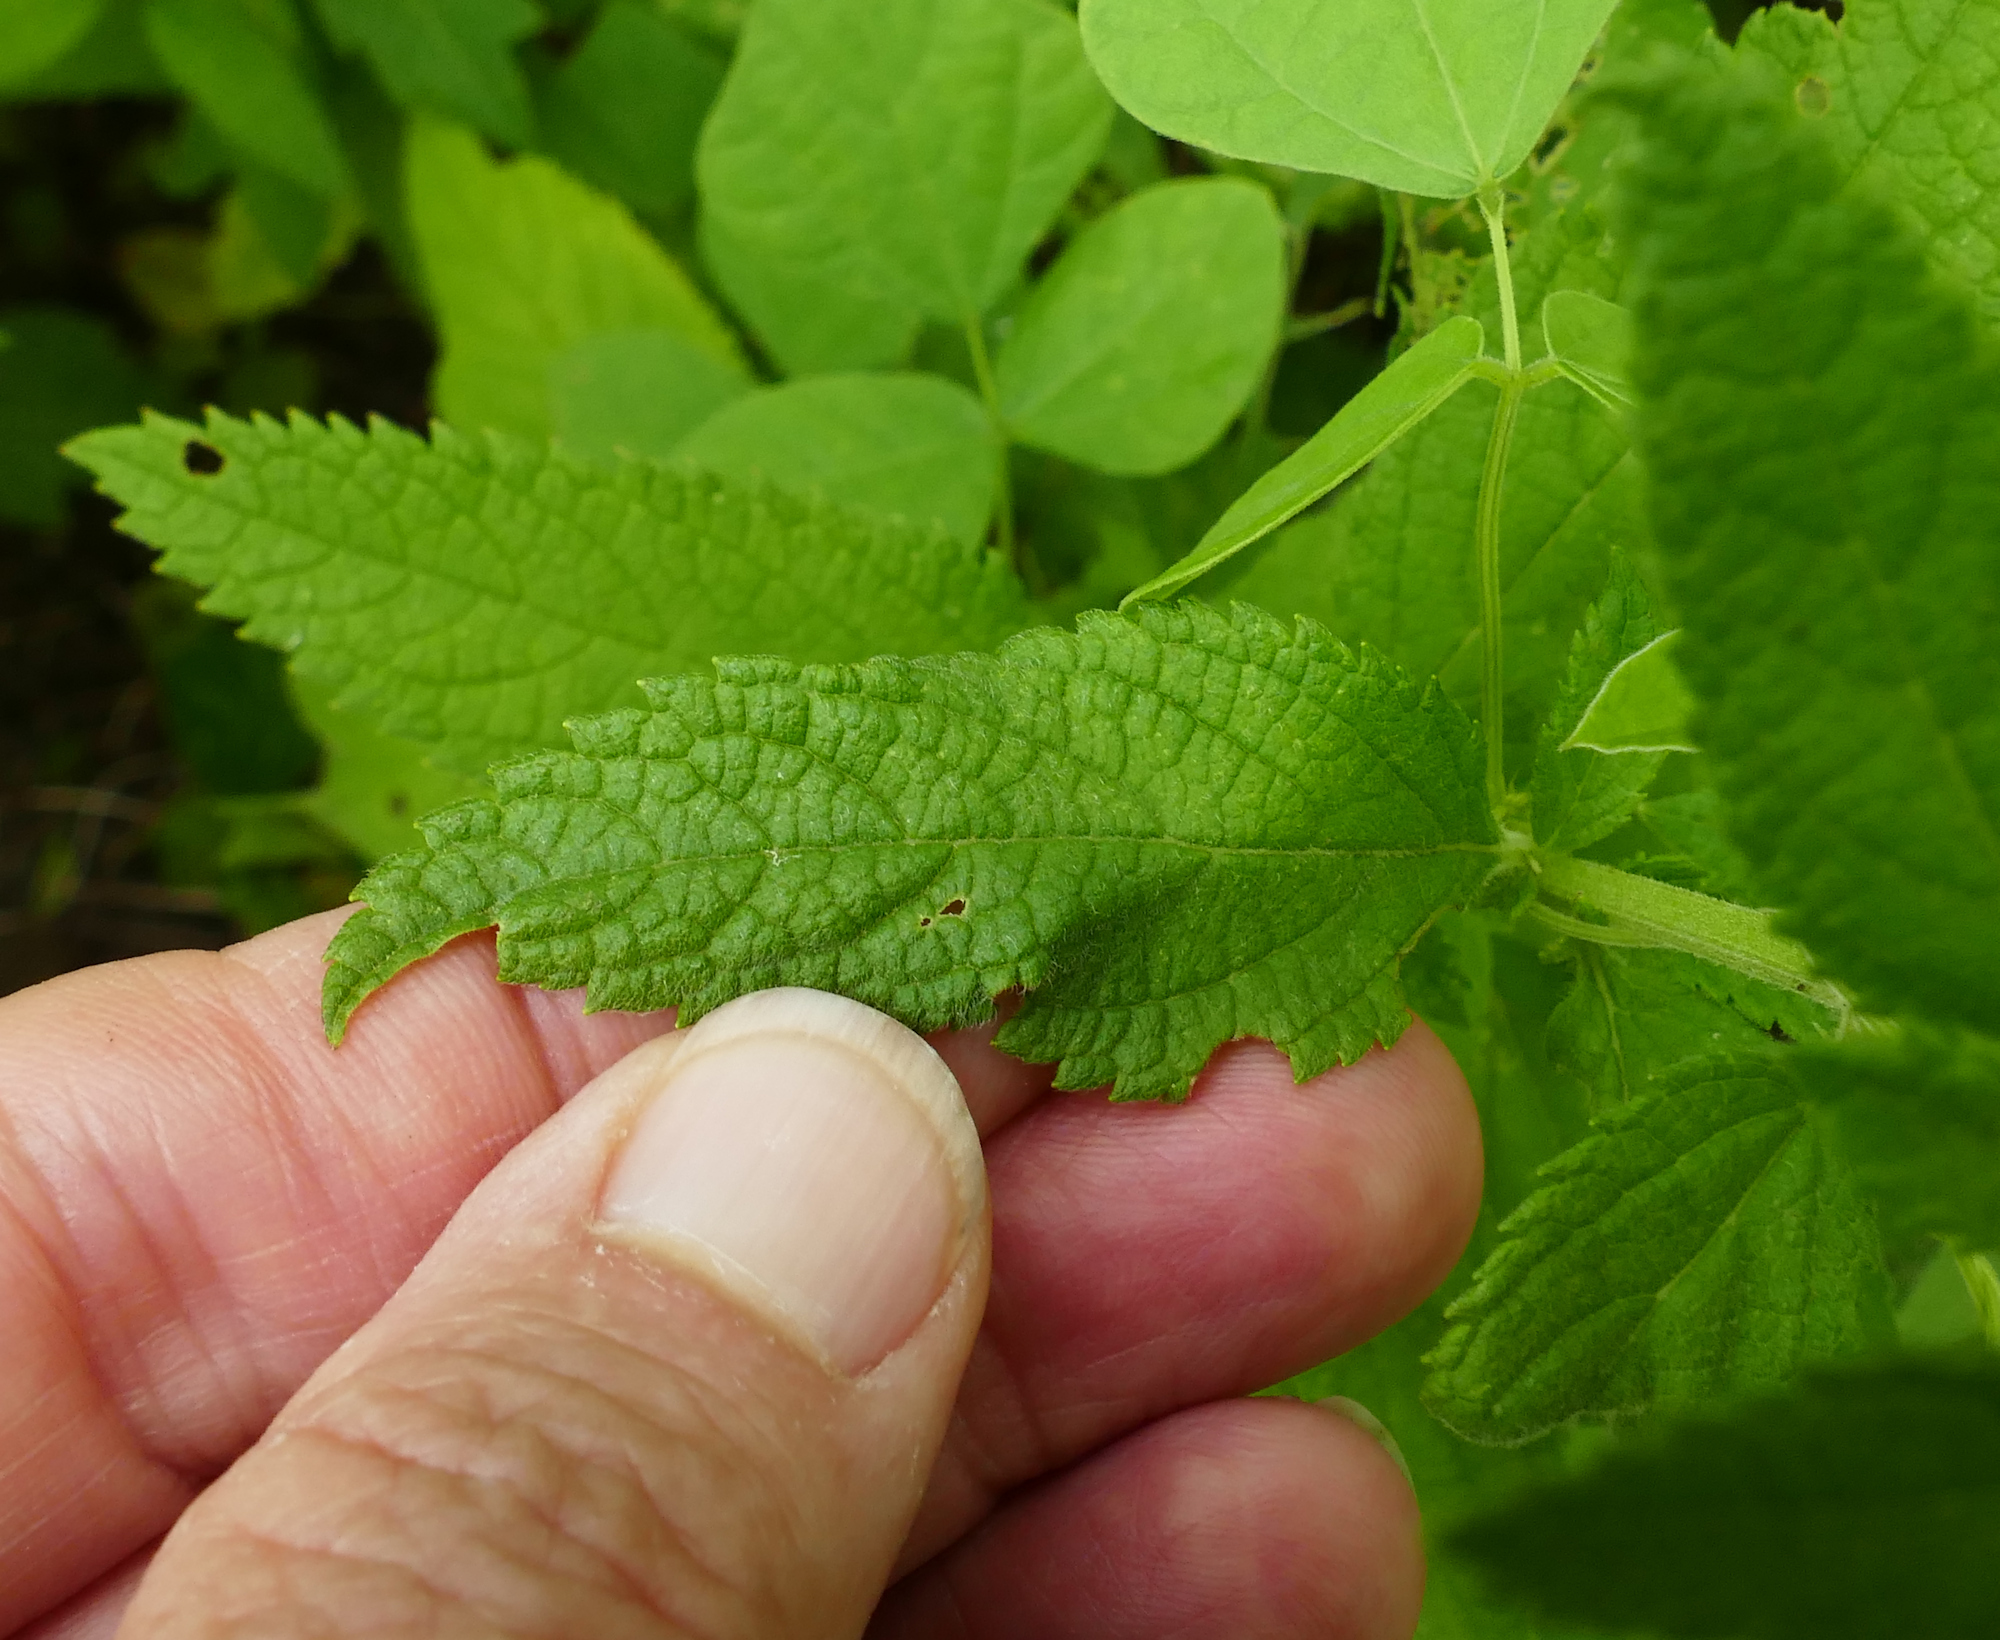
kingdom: Plantae
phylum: Tracheophyta
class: Magnoliopsida
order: Lamiales
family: Lamiaceae
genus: Teucrium
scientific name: Teucrium canadense
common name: American germander
